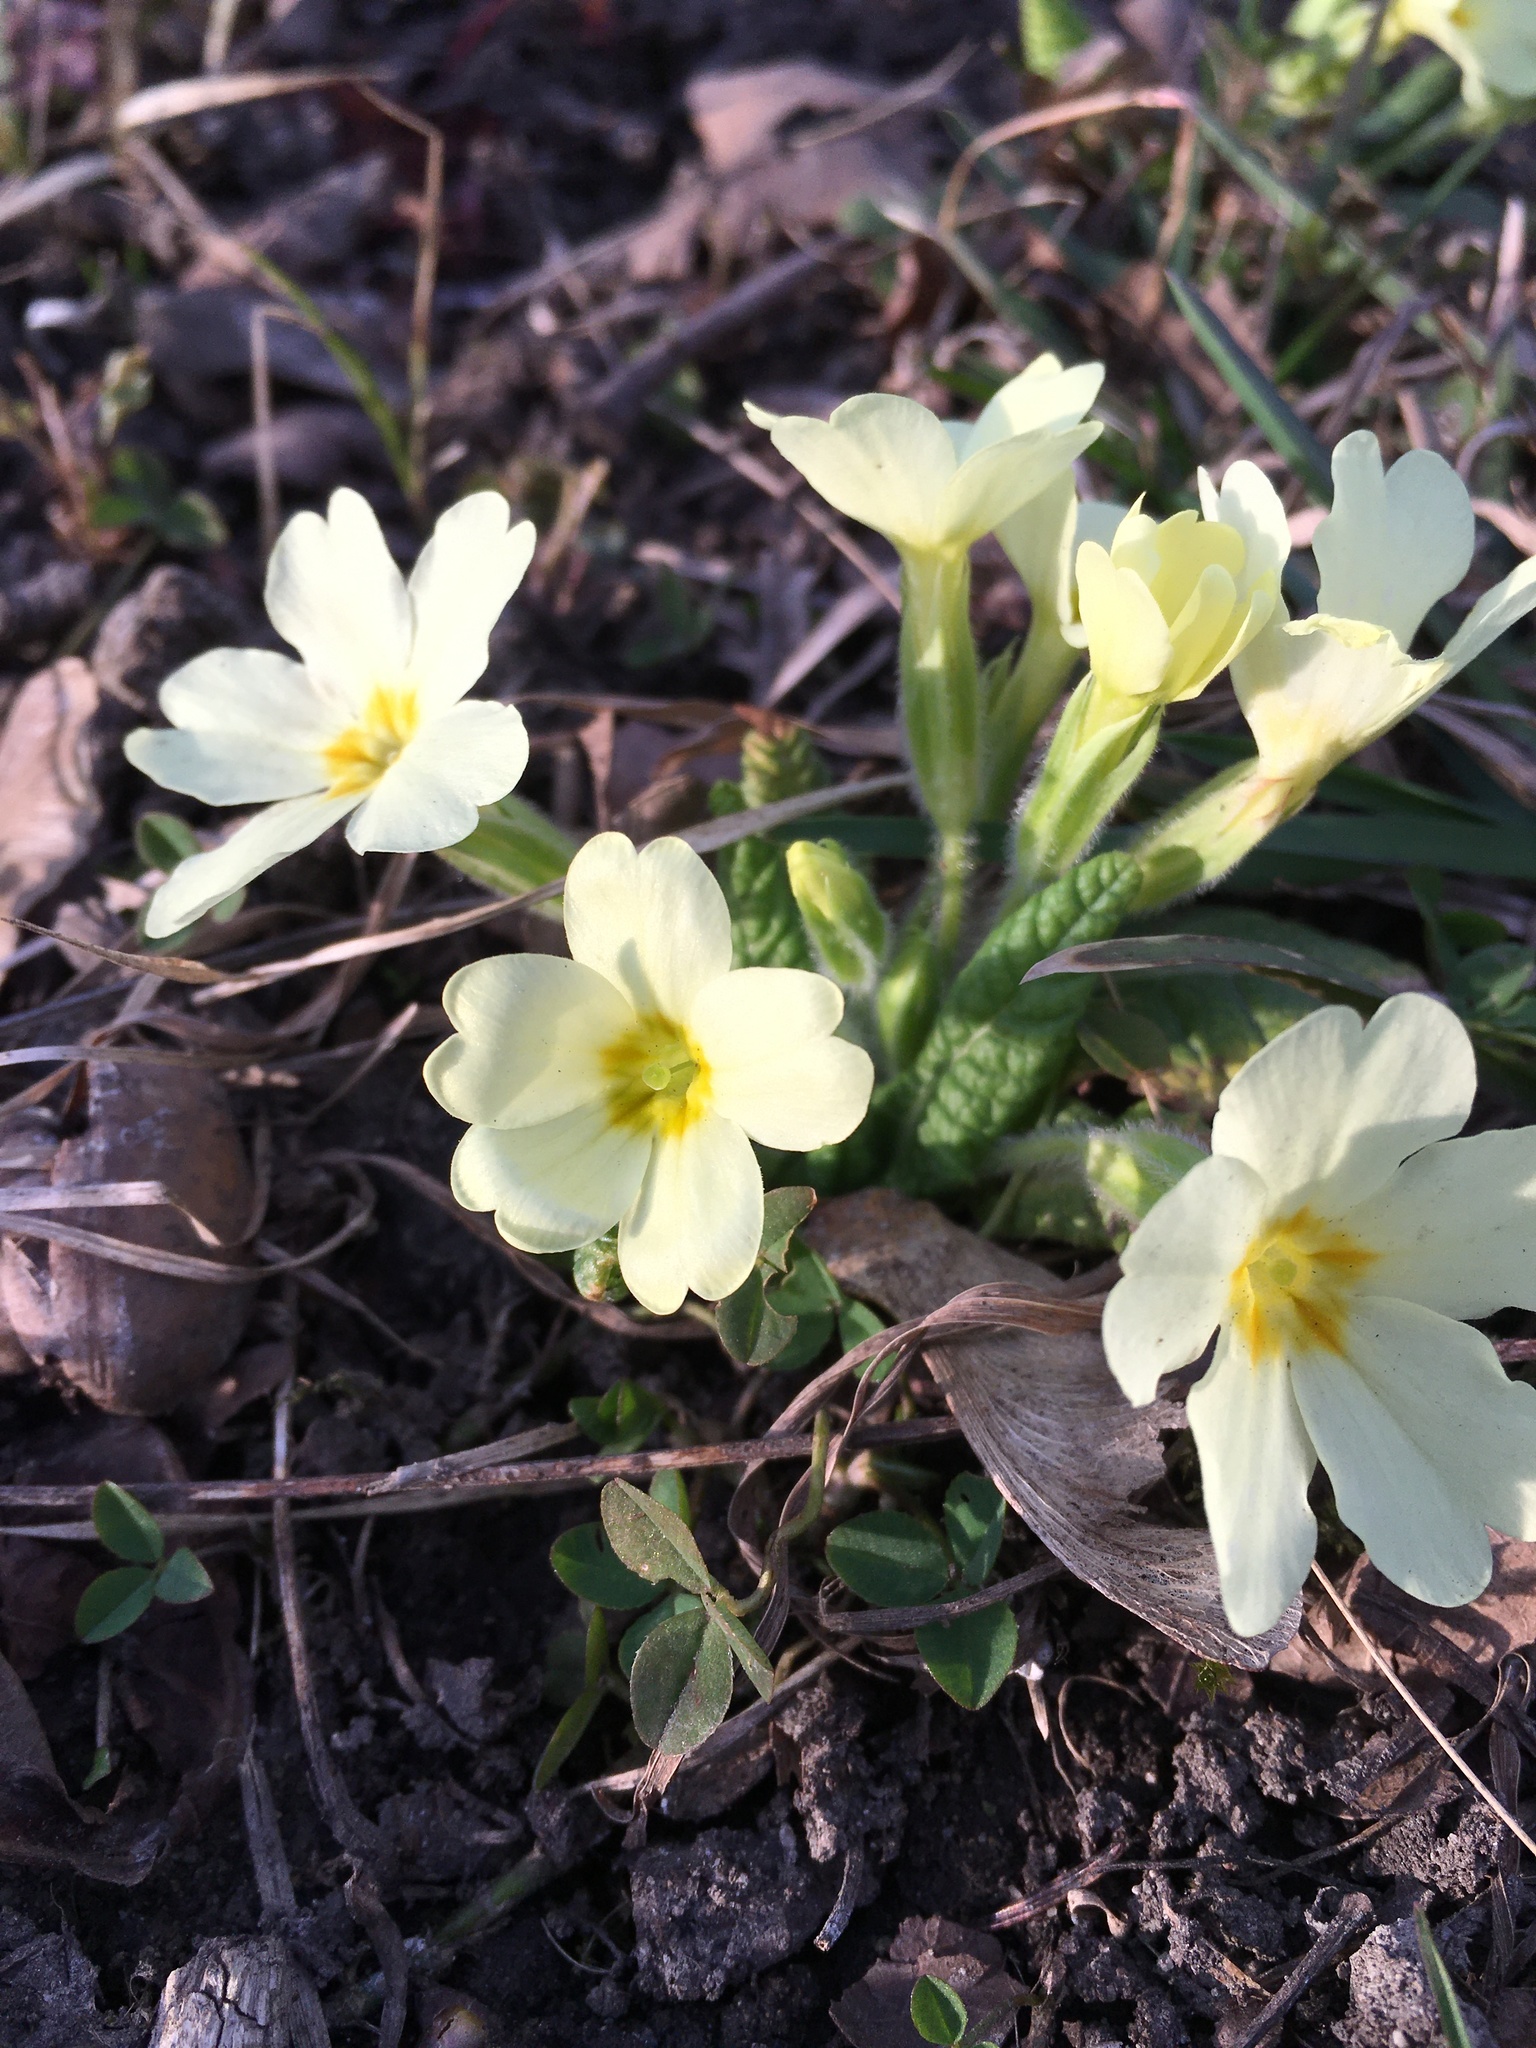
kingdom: Plantae
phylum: Tracheophyta
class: Magnoliopsida
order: Ericales
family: Primulaceae
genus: Primula
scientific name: Primula vulgaris
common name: Primrose
